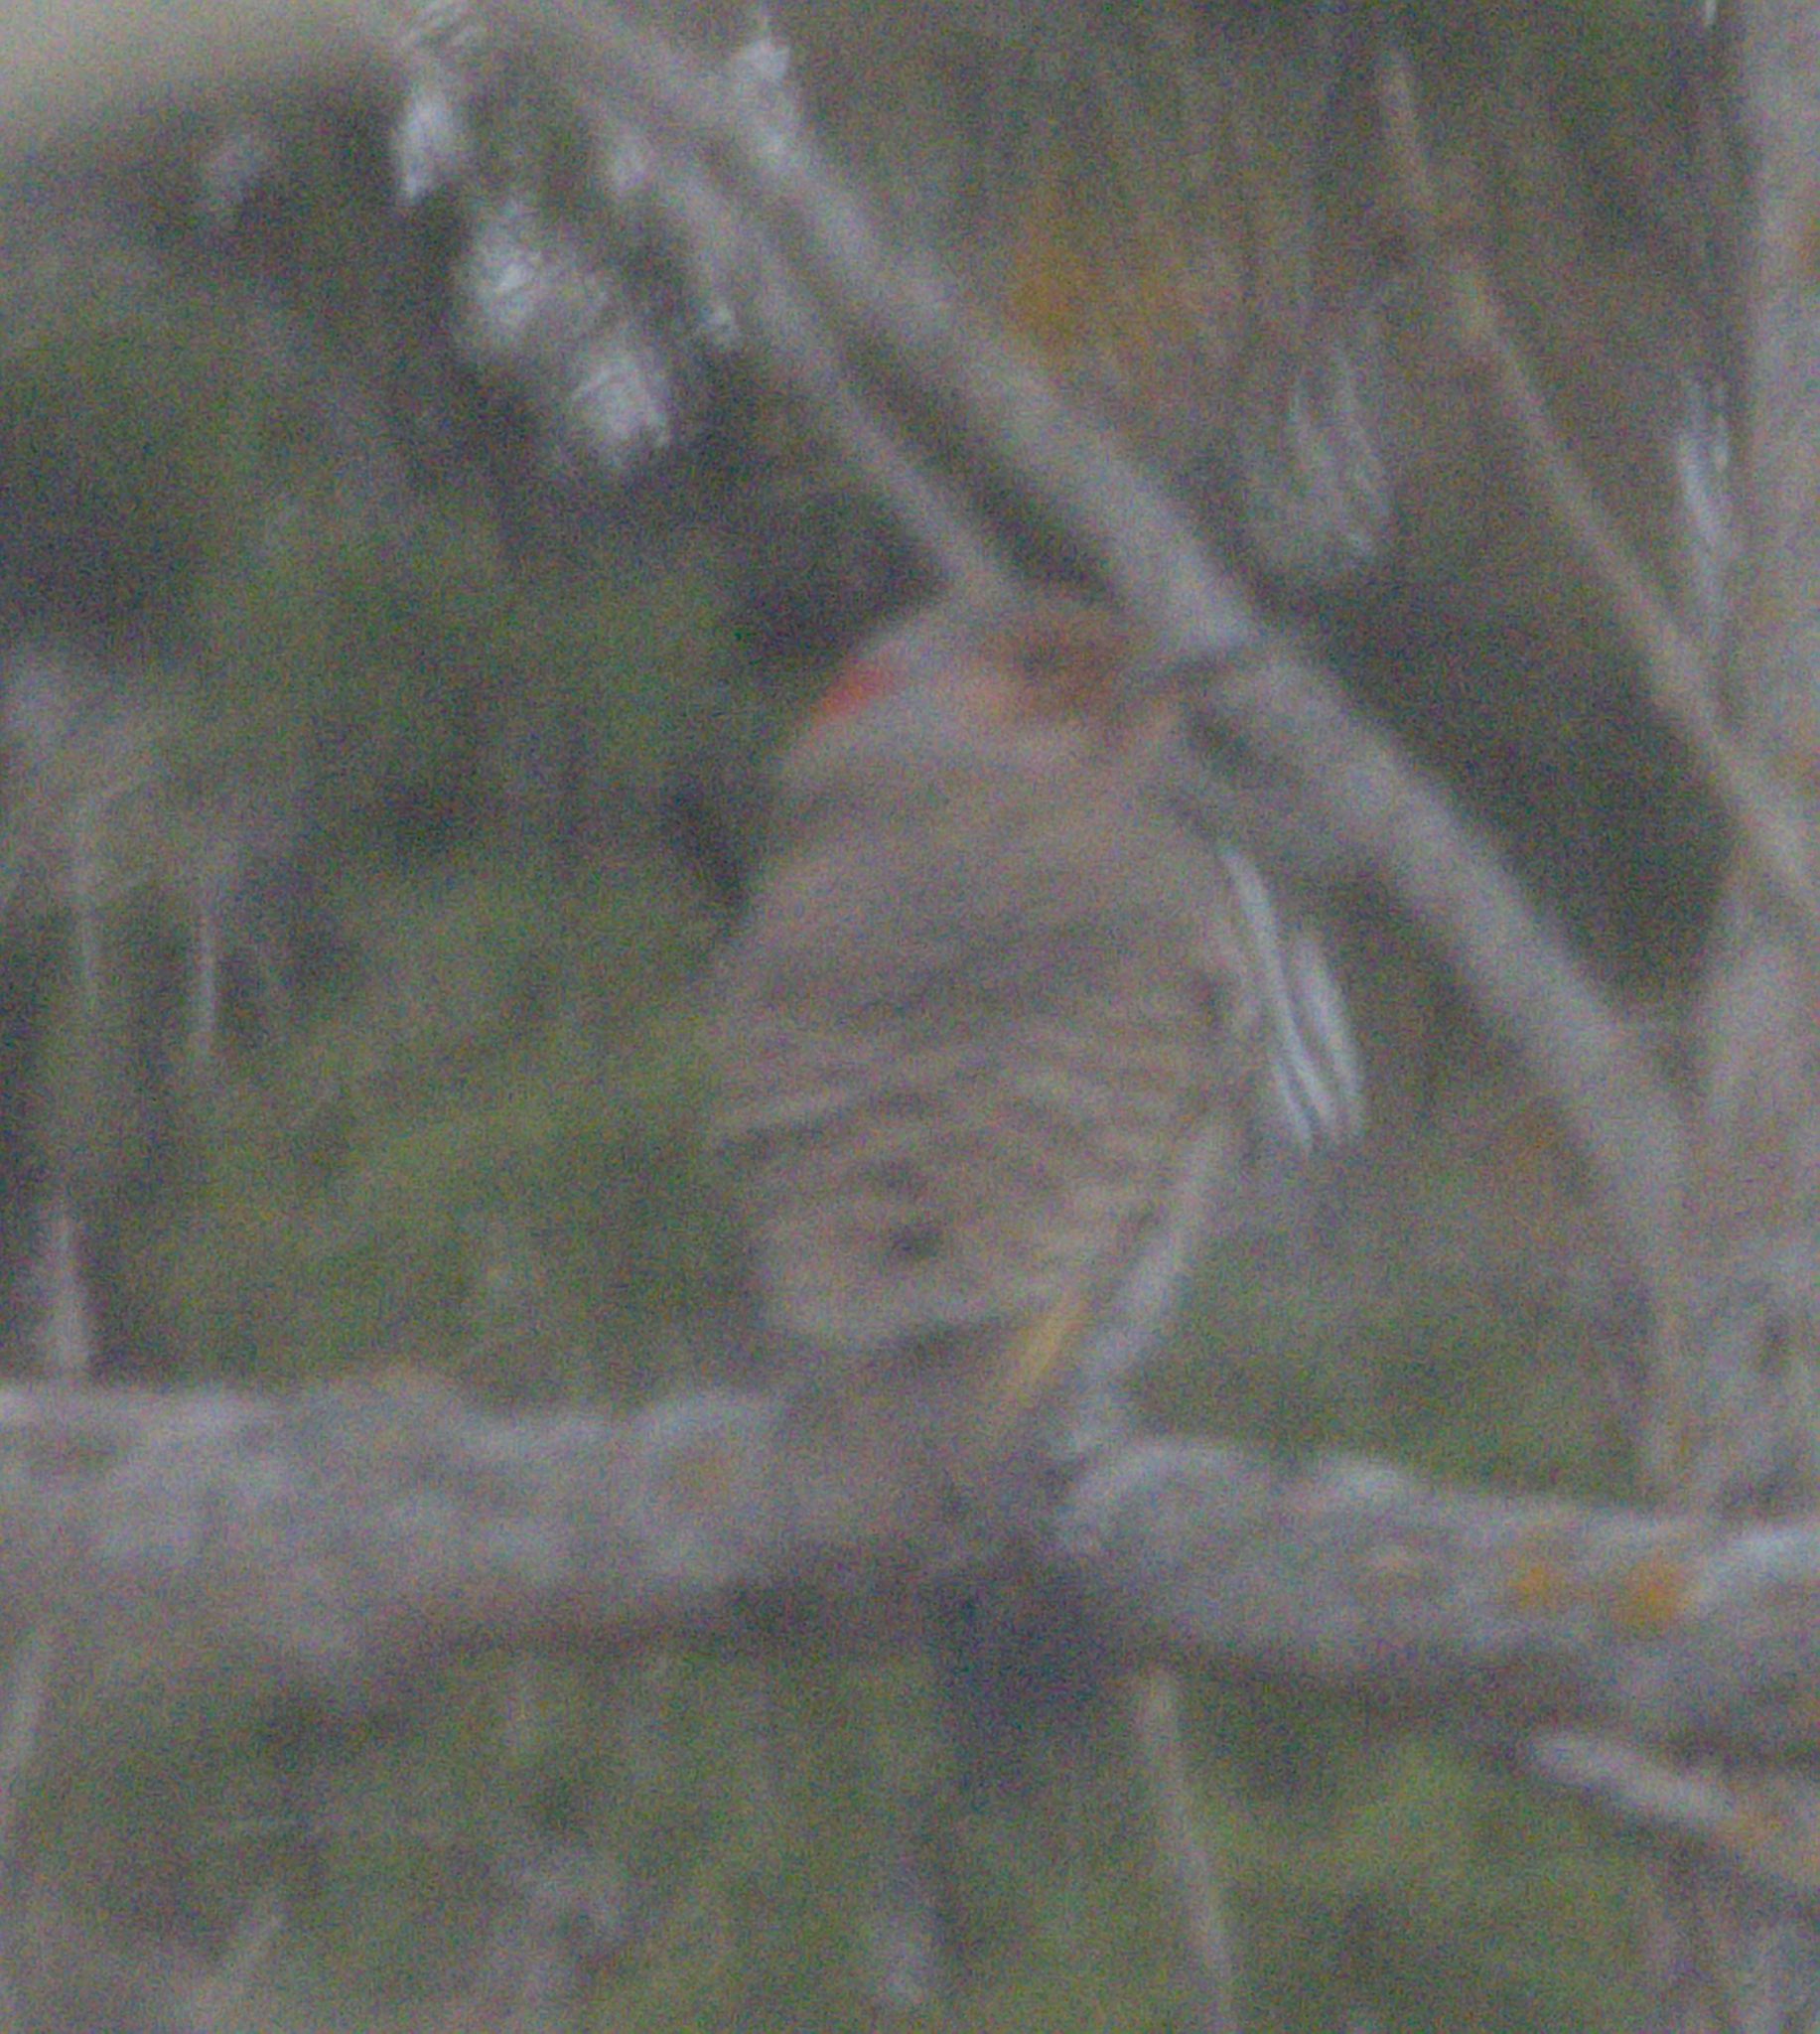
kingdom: Animalia
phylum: Chordata
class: Aves
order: Piciformes
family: Picidae
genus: Colaptes
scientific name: Colaptes auratus
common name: Northern flicker
